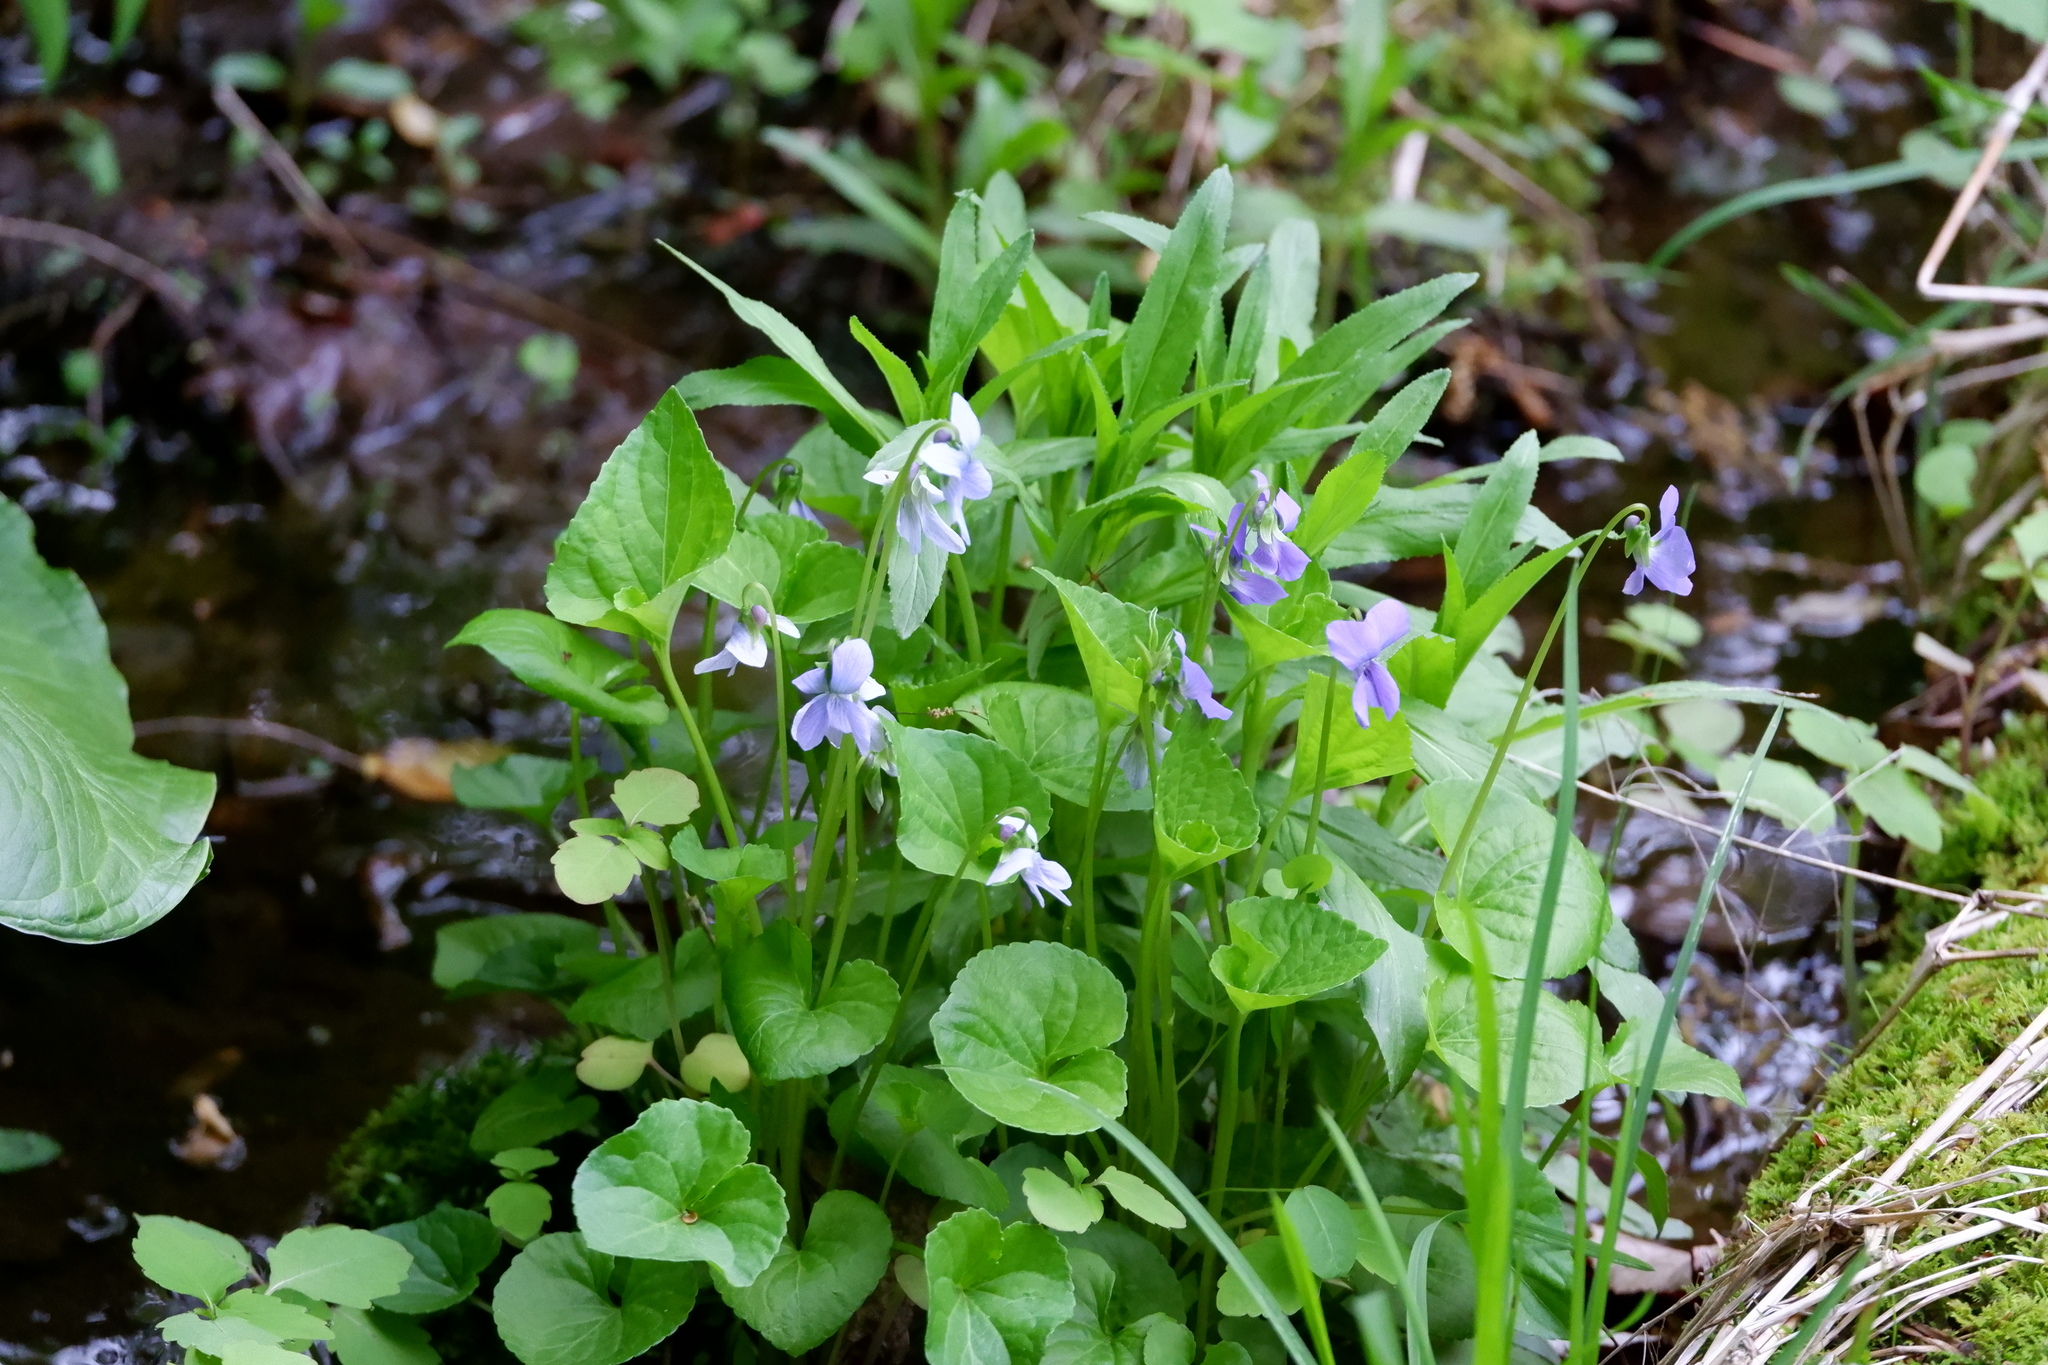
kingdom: Plantae
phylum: Tracheophyta
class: Magnoliopsida
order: Malpighiales
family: Violaceae
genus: Viola
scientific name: Viola cucullata
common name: Marsh blue violet
